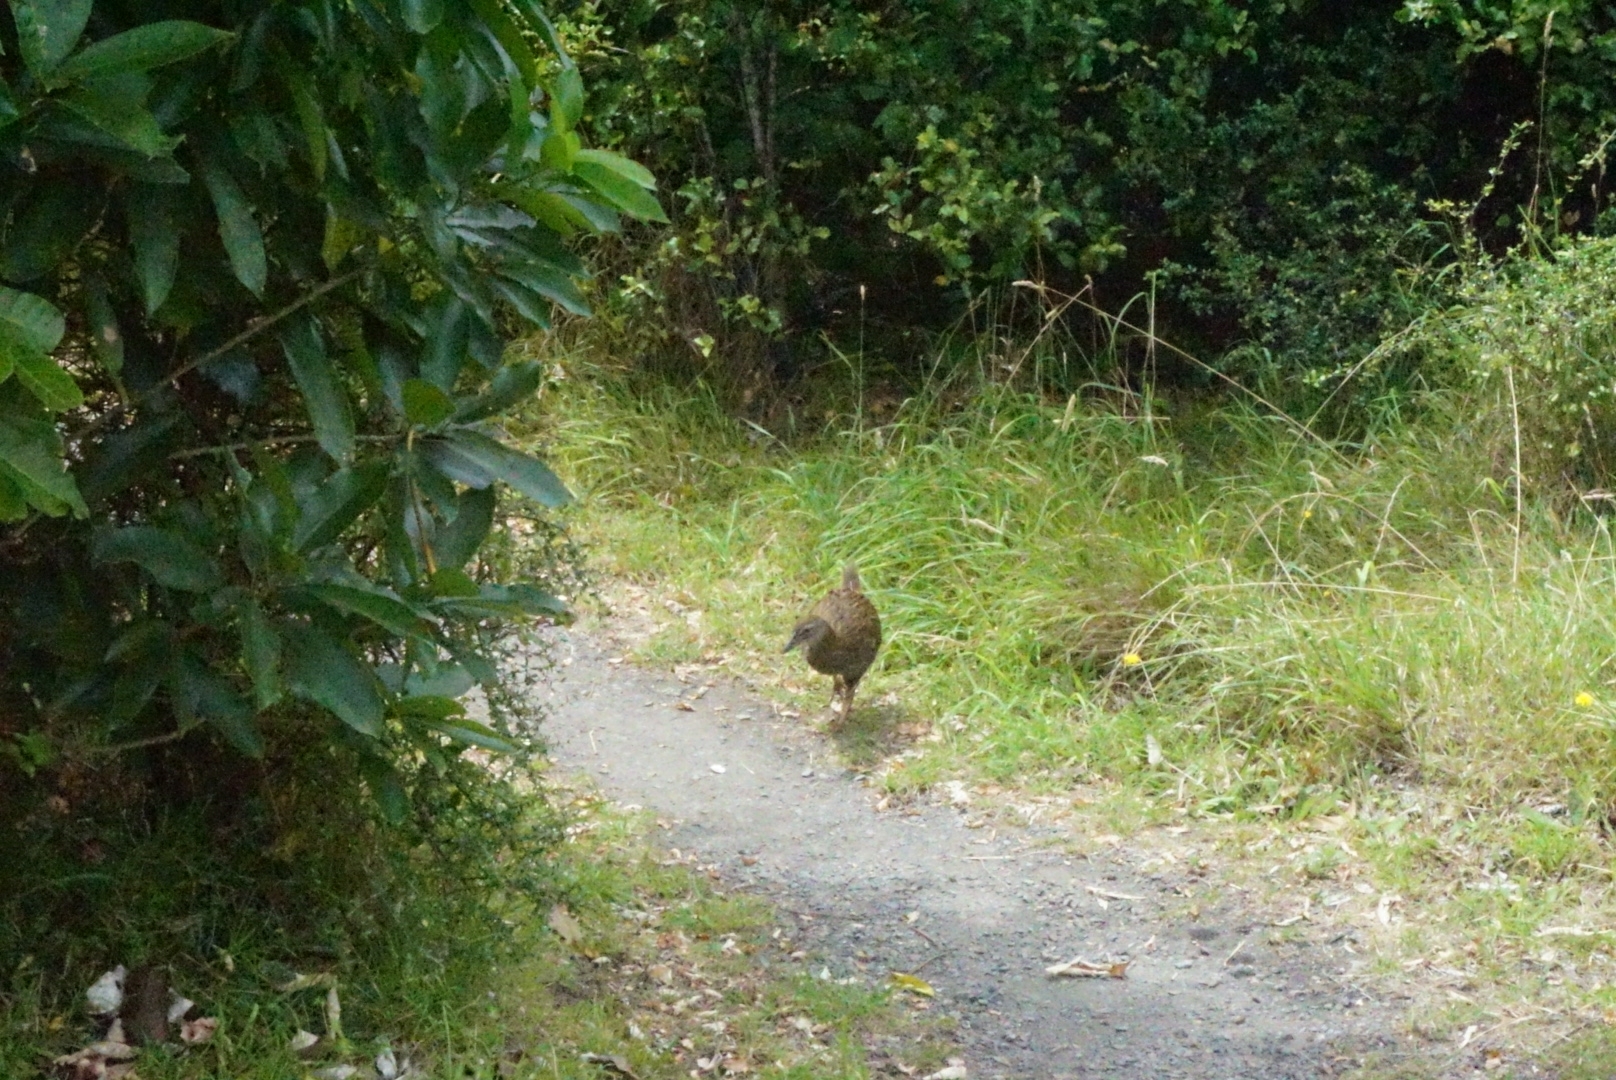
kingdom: Animalia
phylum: Chordata
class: Aves
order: Gruiformes
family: Rallidae
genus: Gallirallus
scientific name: Gallirallus
